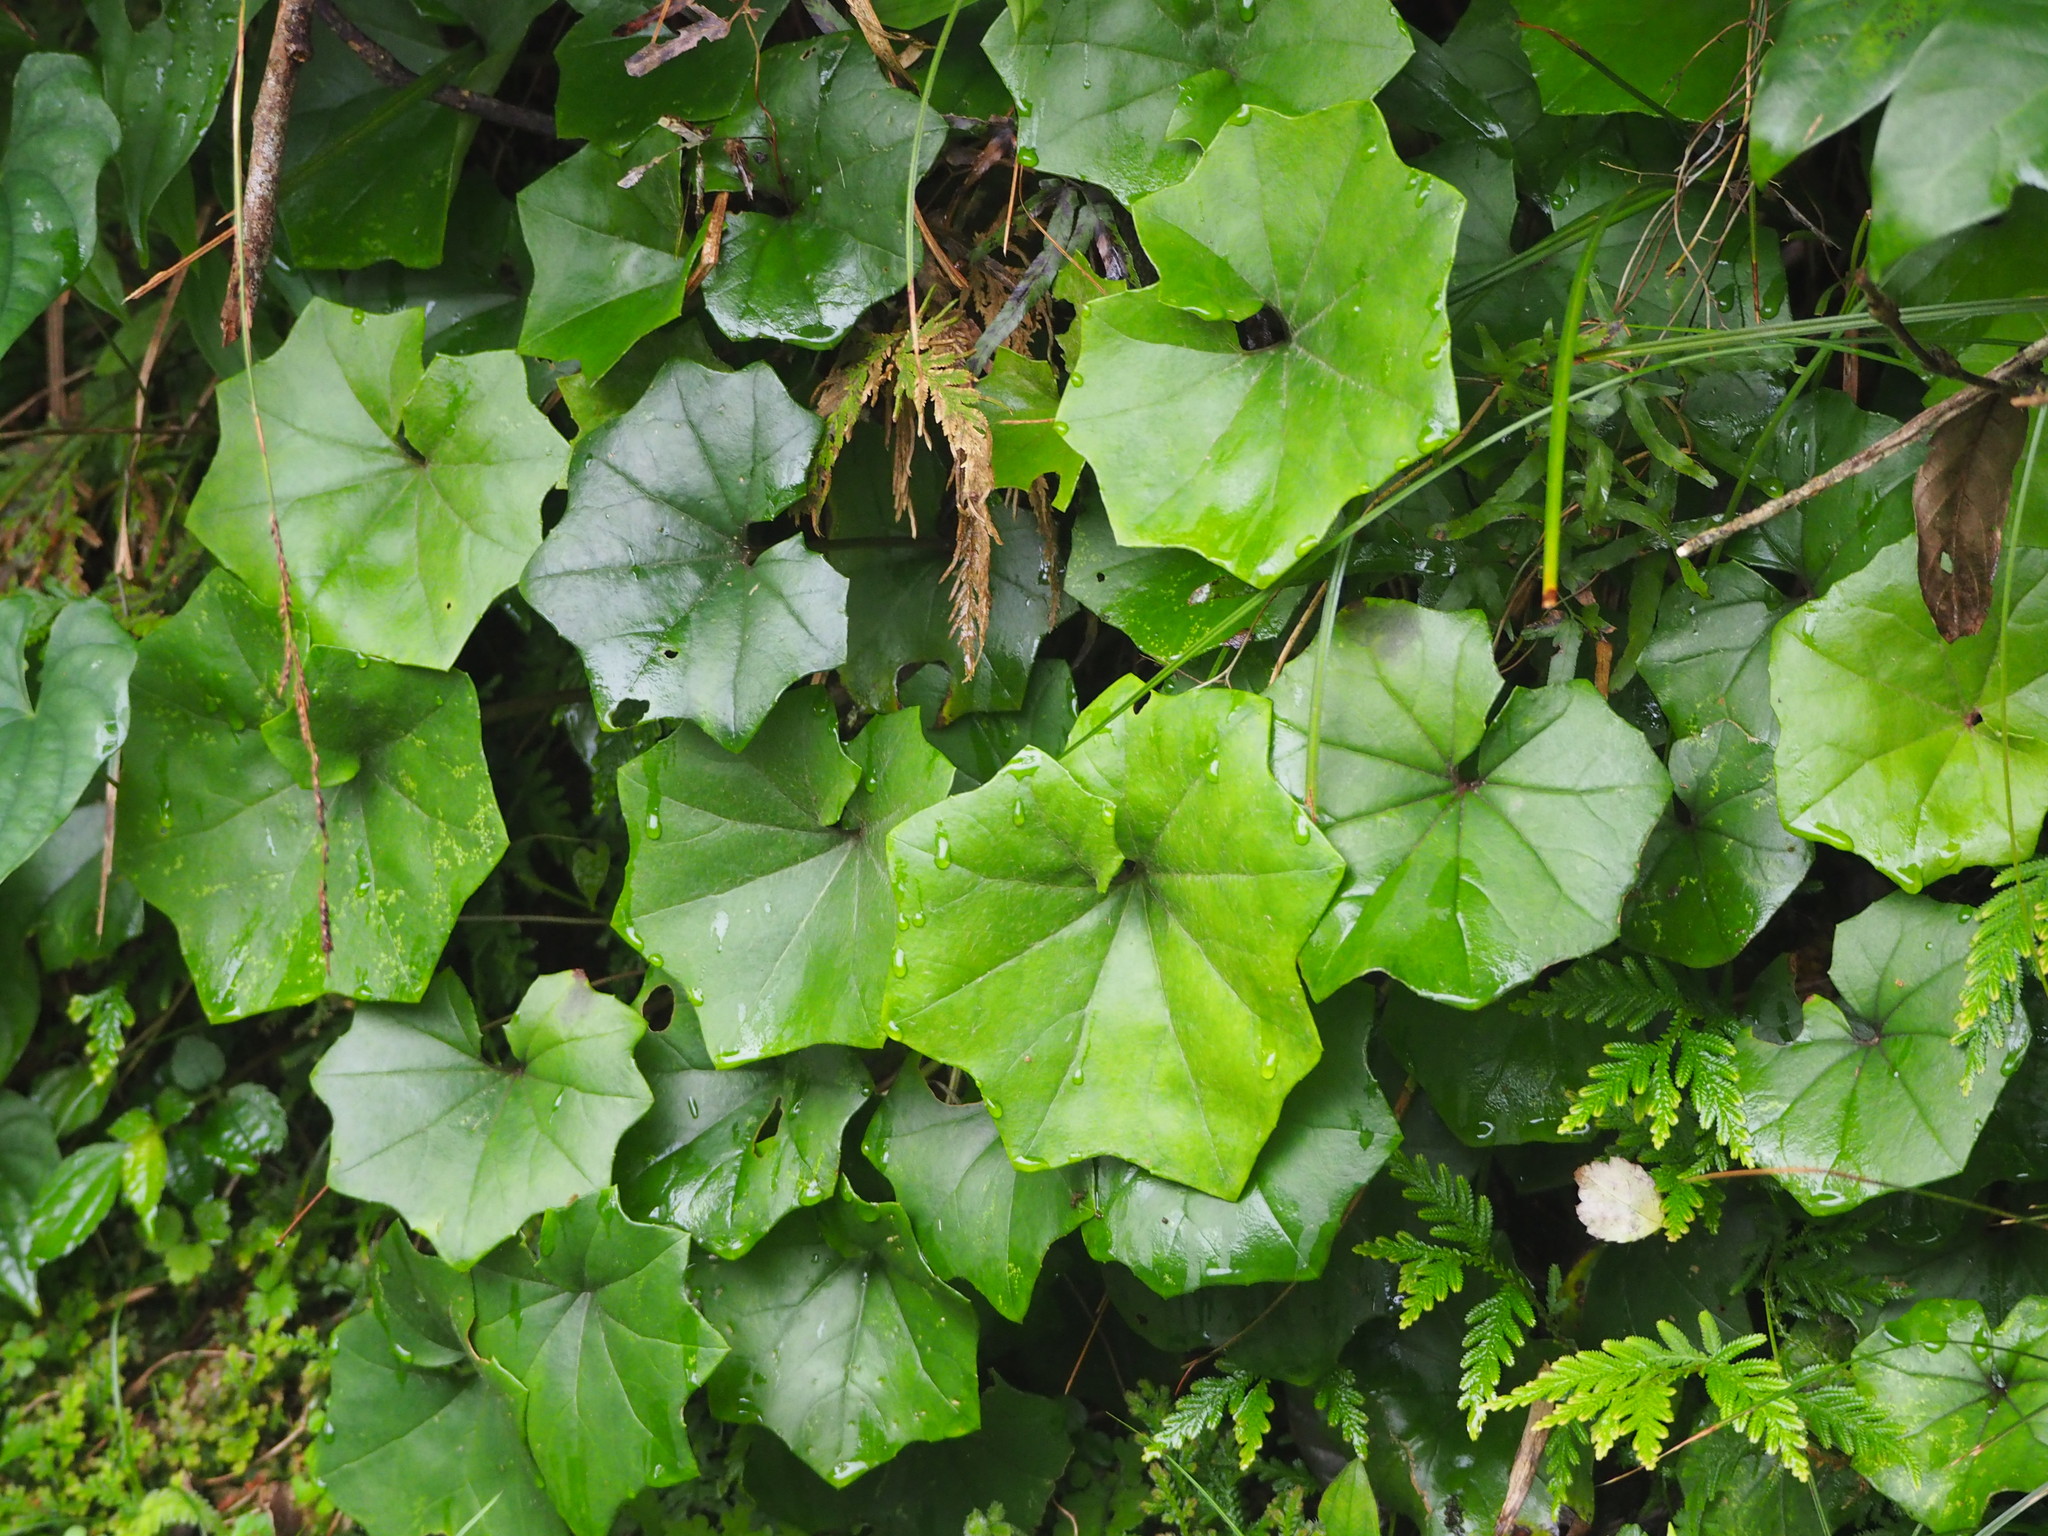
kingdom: Plantae
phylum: Tracheophyta
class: Magnoliopsida
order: Asterales
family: Asteraceae
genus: Farfugium
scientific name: Farfugium japonicum
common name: Leopardplant
